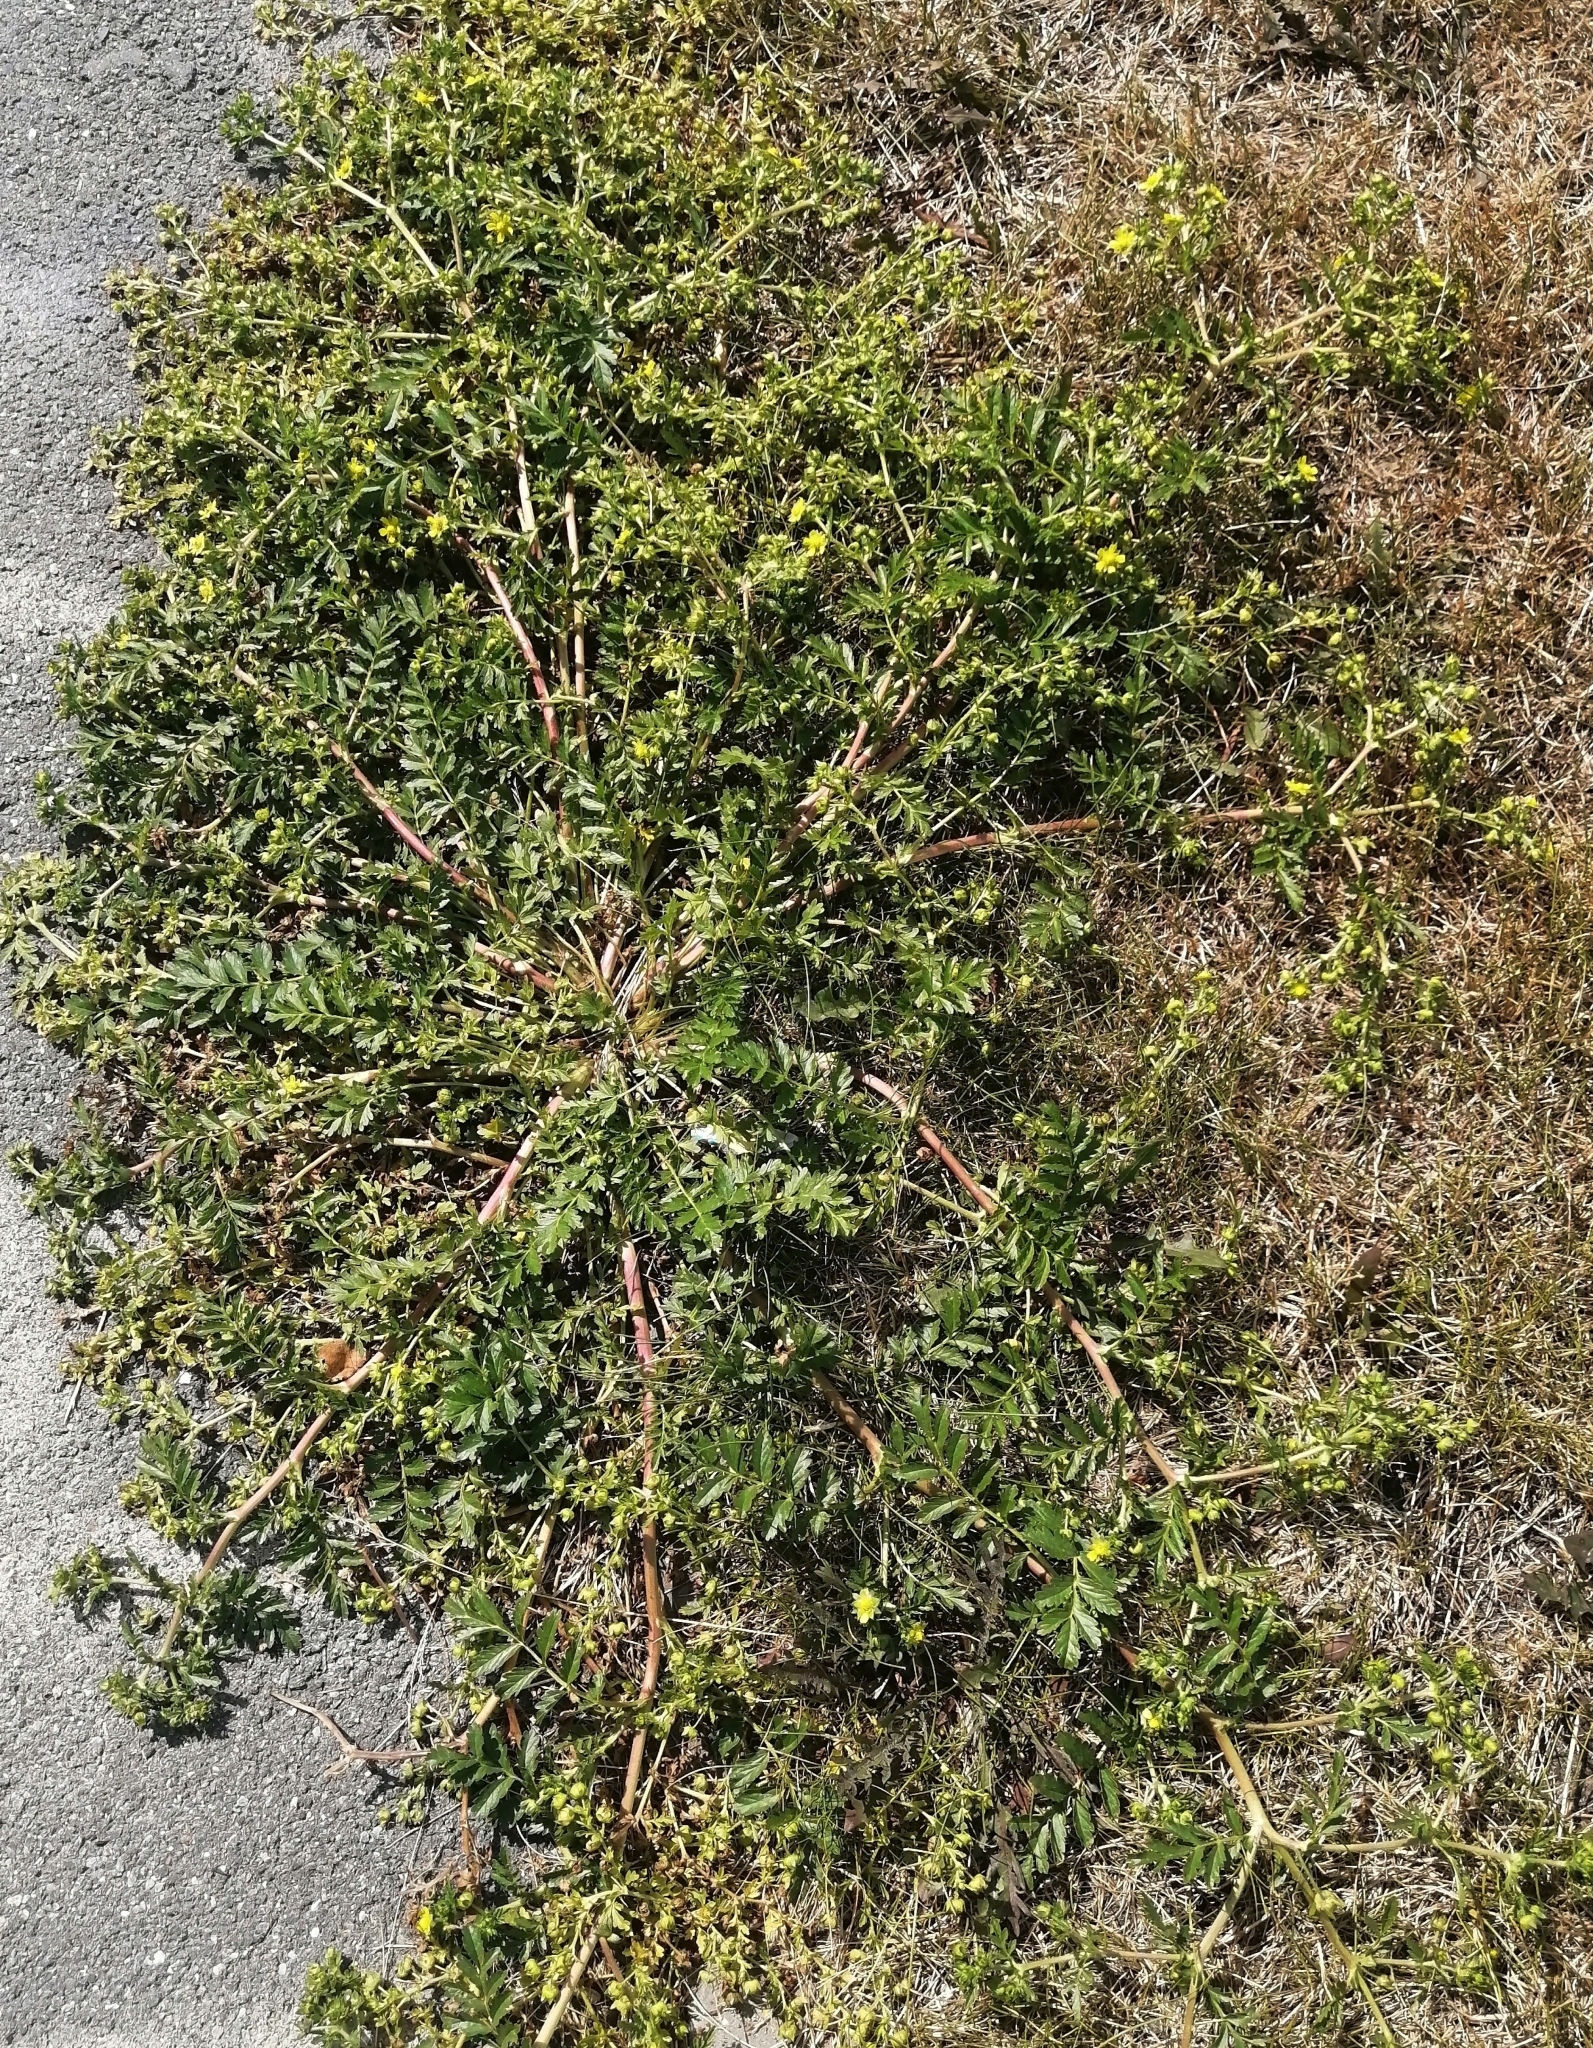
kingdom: Plantae
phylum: Tracheophyta
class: Magnoliopsida
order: Rosales
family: Rosaceae
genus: Potentilla
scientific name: Potentilla supina
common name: Prostrate cinquefoil
